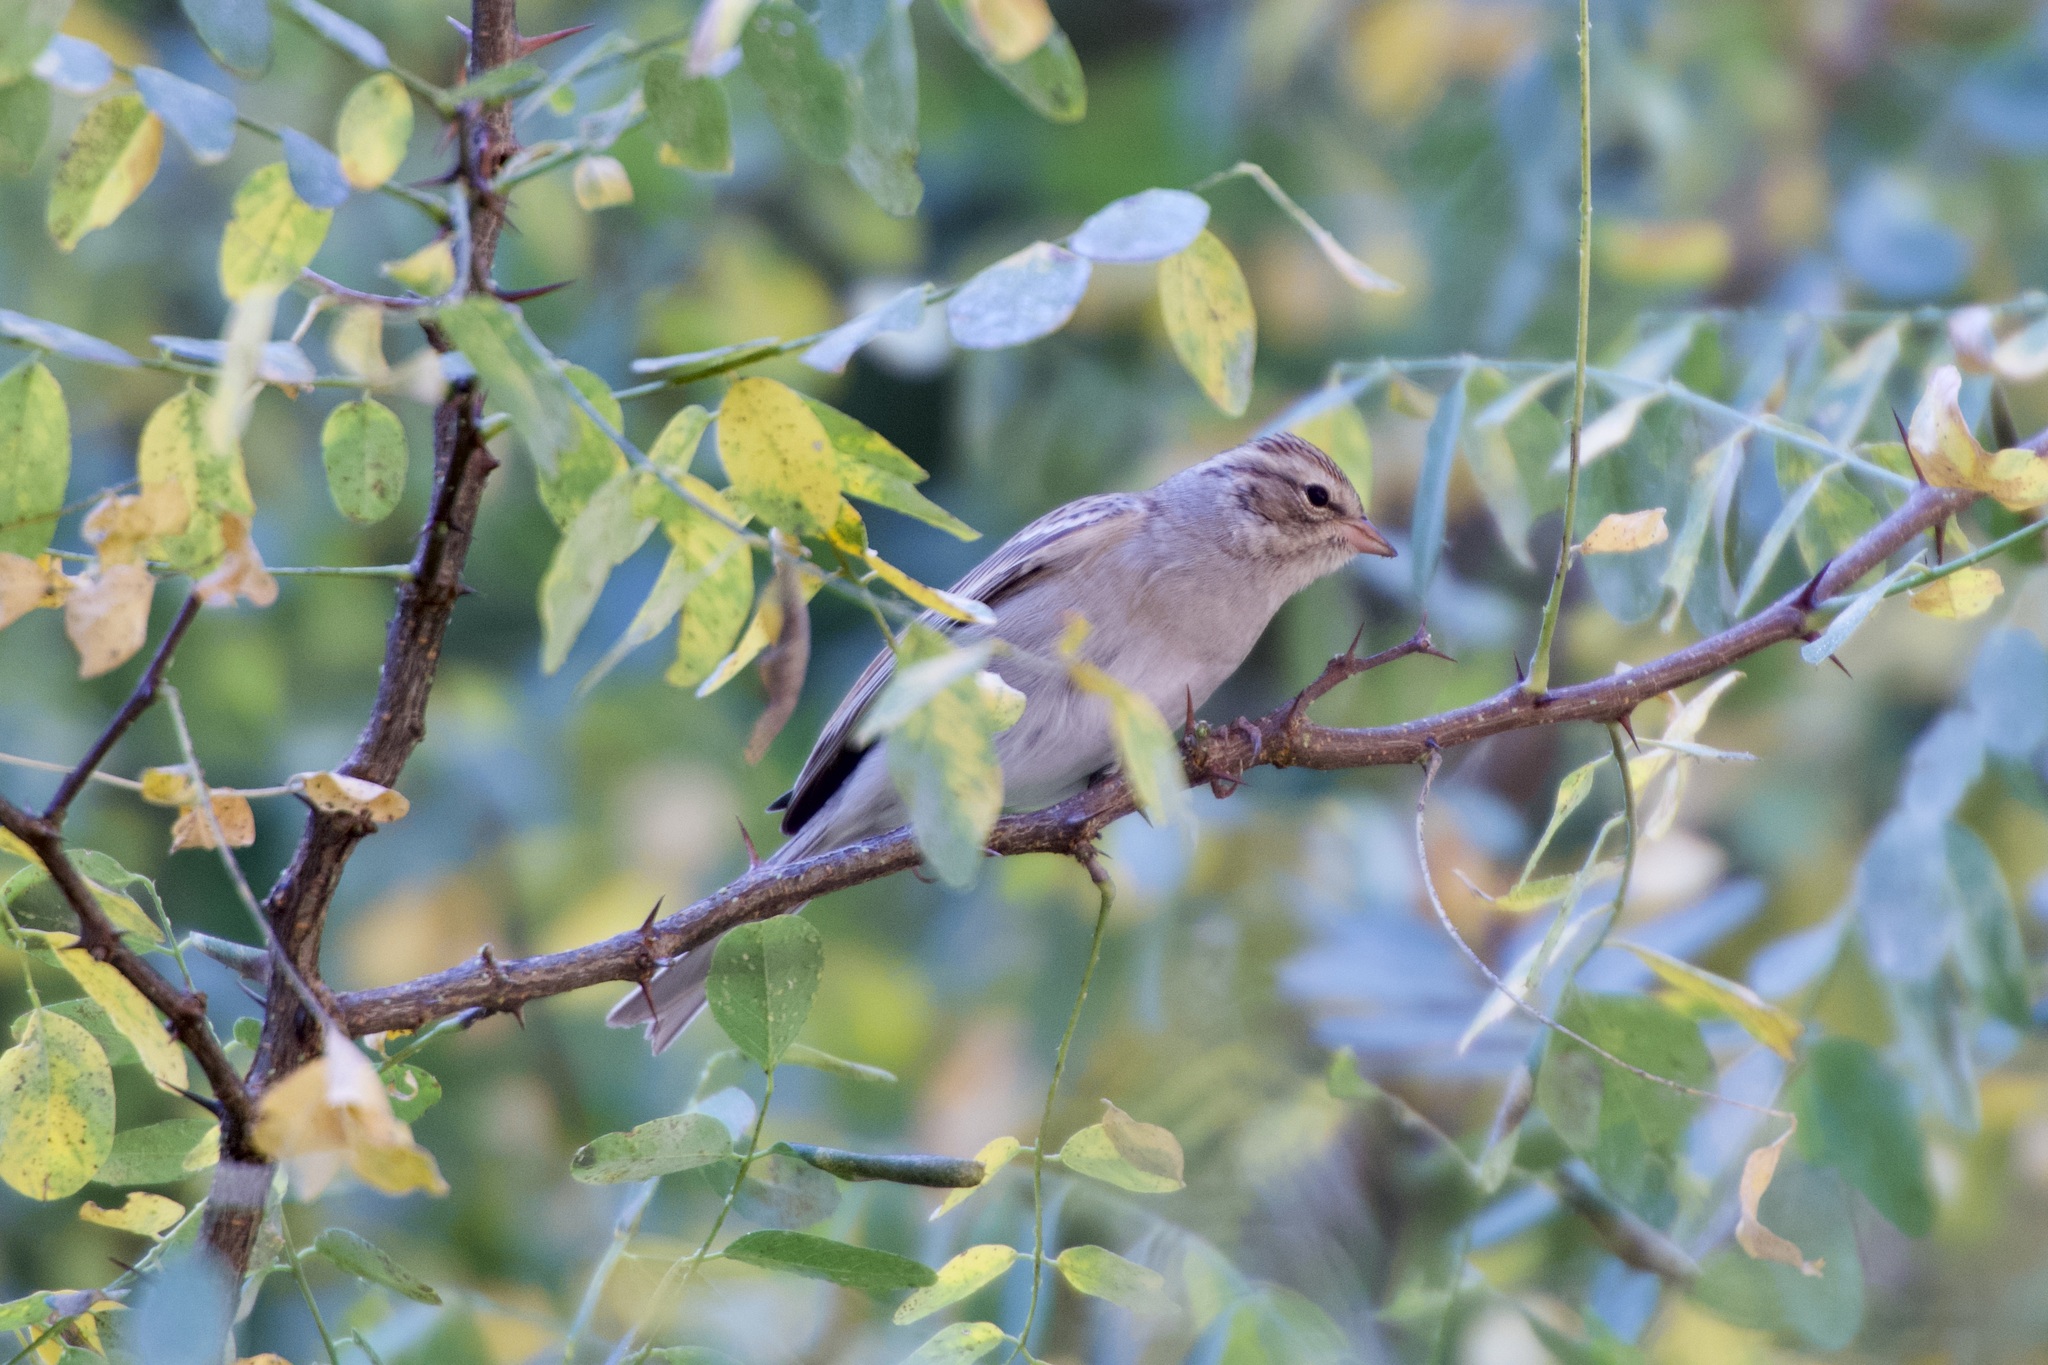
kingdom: Animalia
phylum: Chordata
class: Aves
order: Passeriformes
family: Passerellidae
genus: Spizella
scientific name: Spizella passerina
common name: Chipping sparrow
